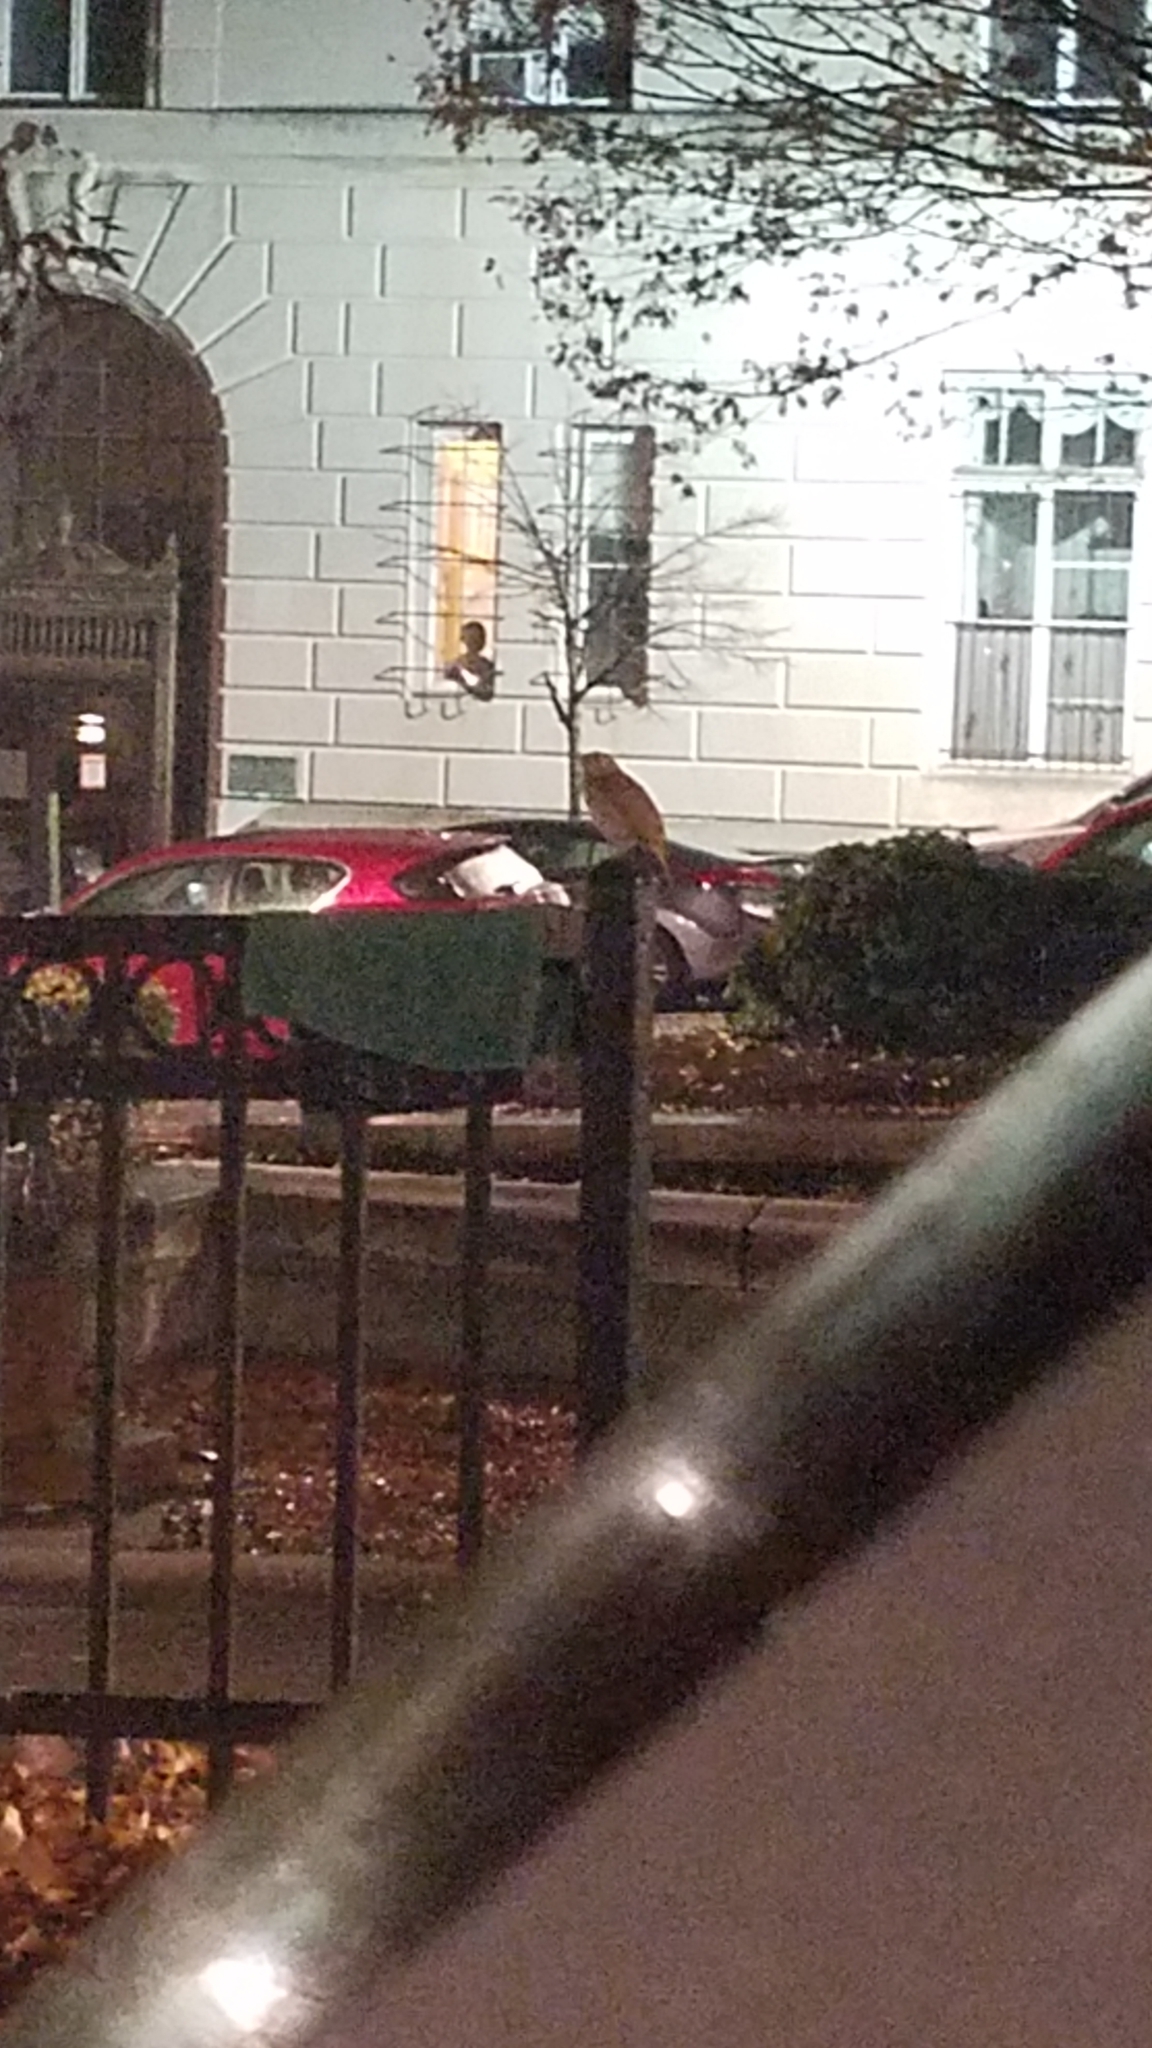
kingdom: Animalia
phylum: Chordata
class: Aves
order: Passeriformes
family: Turdidae
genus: Catharus
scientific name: Catharus guttatus
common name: Hermit thrush
